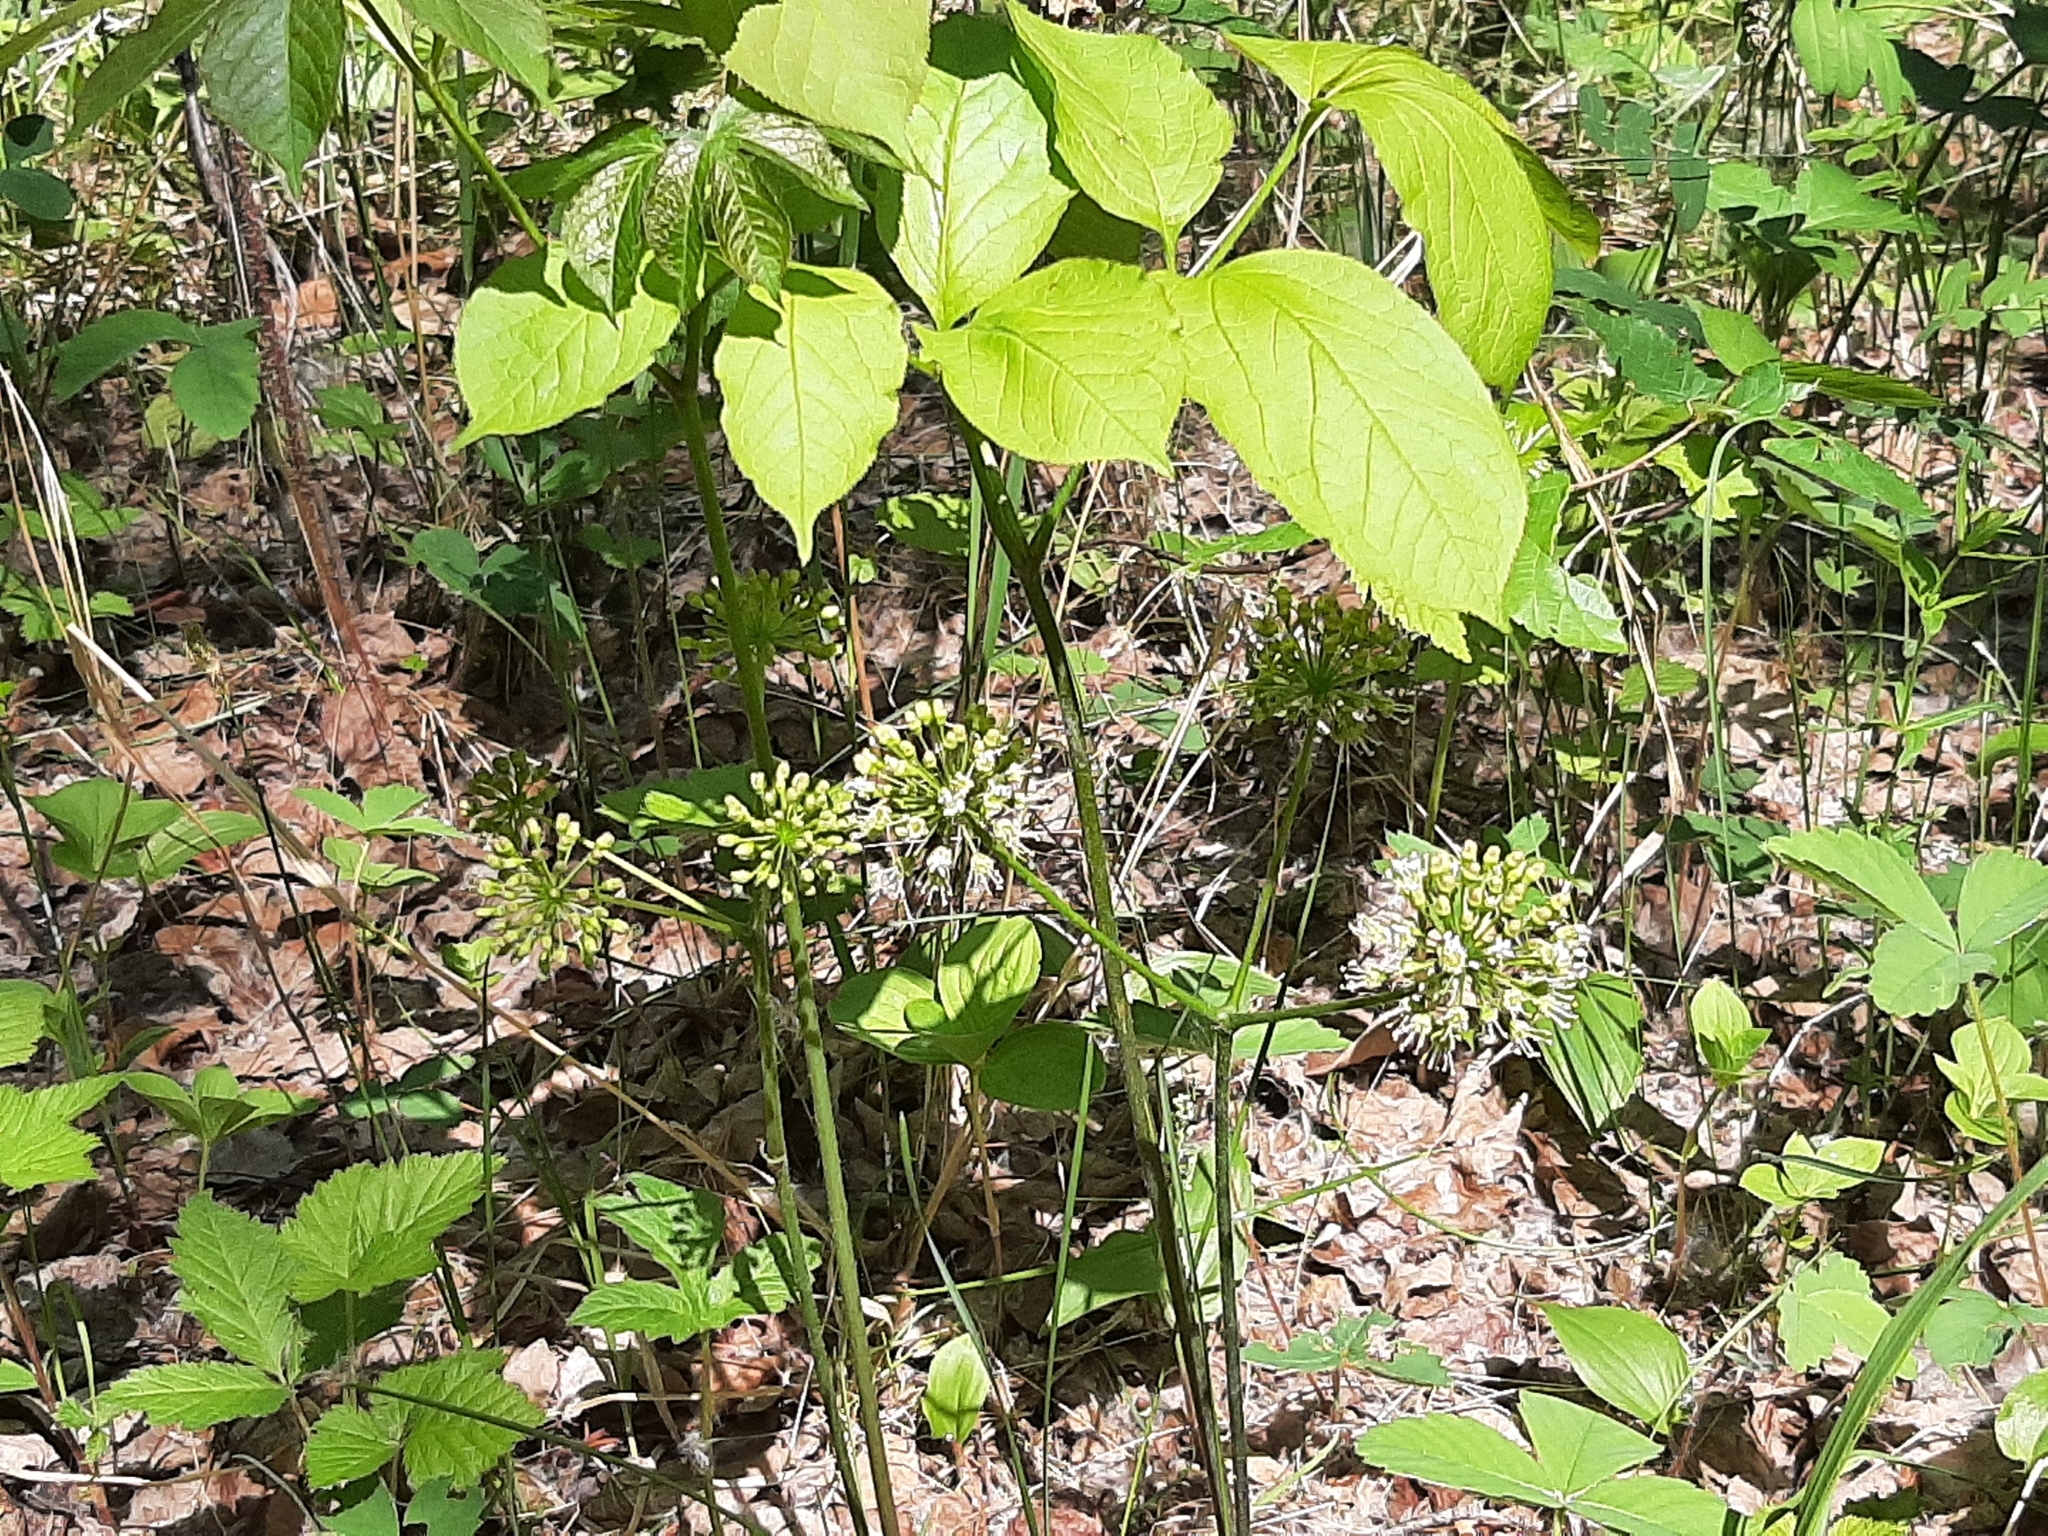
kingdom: Plantae
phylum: Tracheophyta
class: Magnoliopsida
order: Apiales
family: Araliaceae
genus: Aralia
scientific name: Aralia nudicaulis
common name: Wild sarsaparilla
